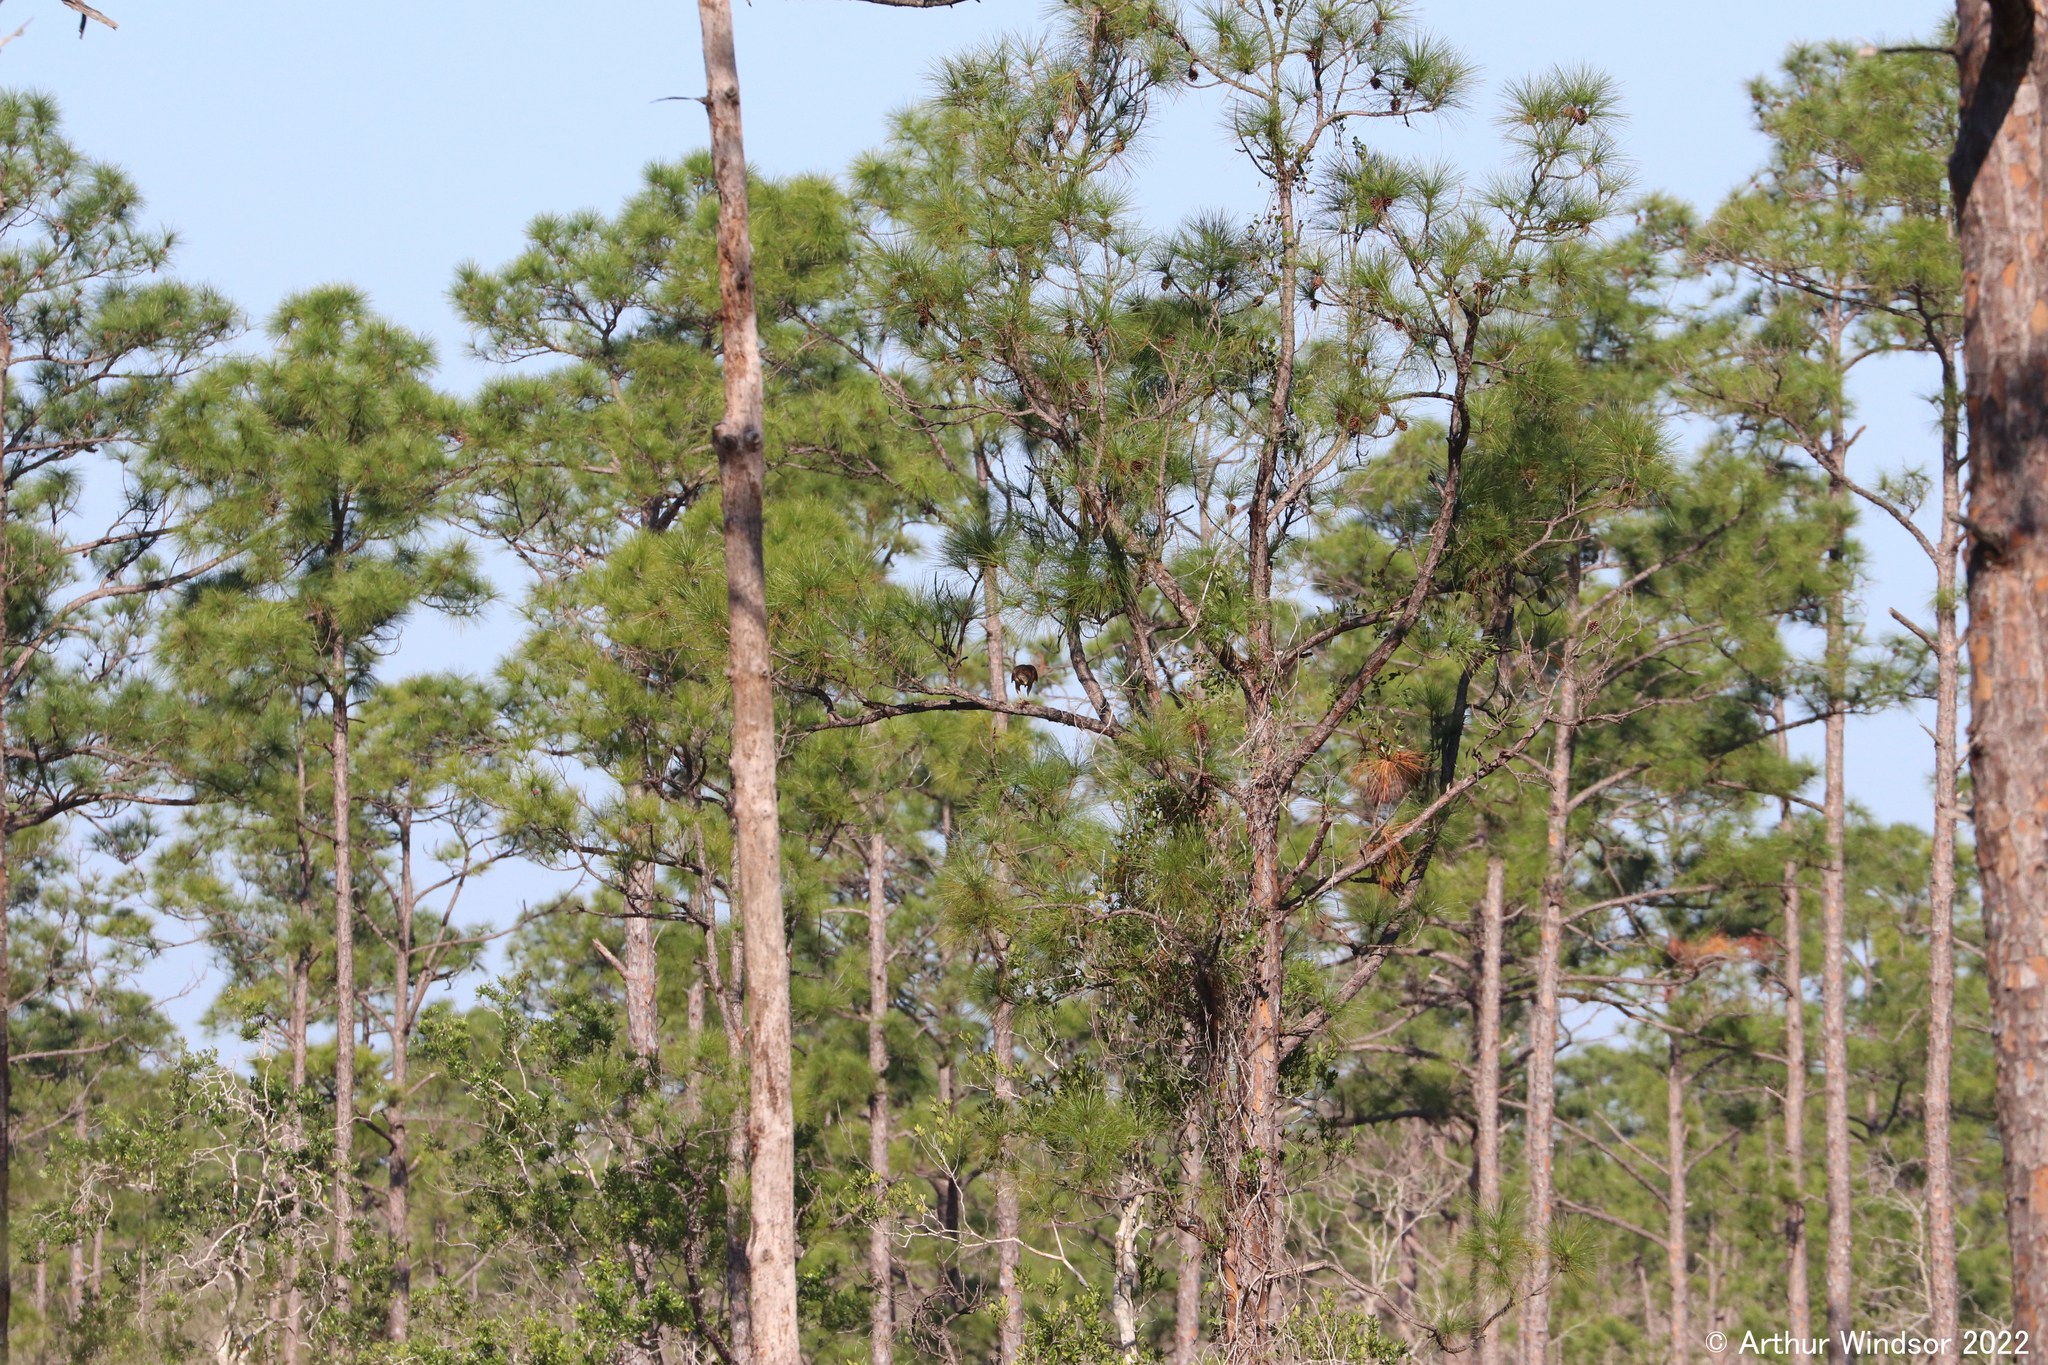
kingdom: Animalia
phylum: Chordata
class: Aves
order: Accipitriformes
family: Accipitridae
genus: Buteo
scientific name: Buteo lineatus
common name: Red-shouldered hawk
